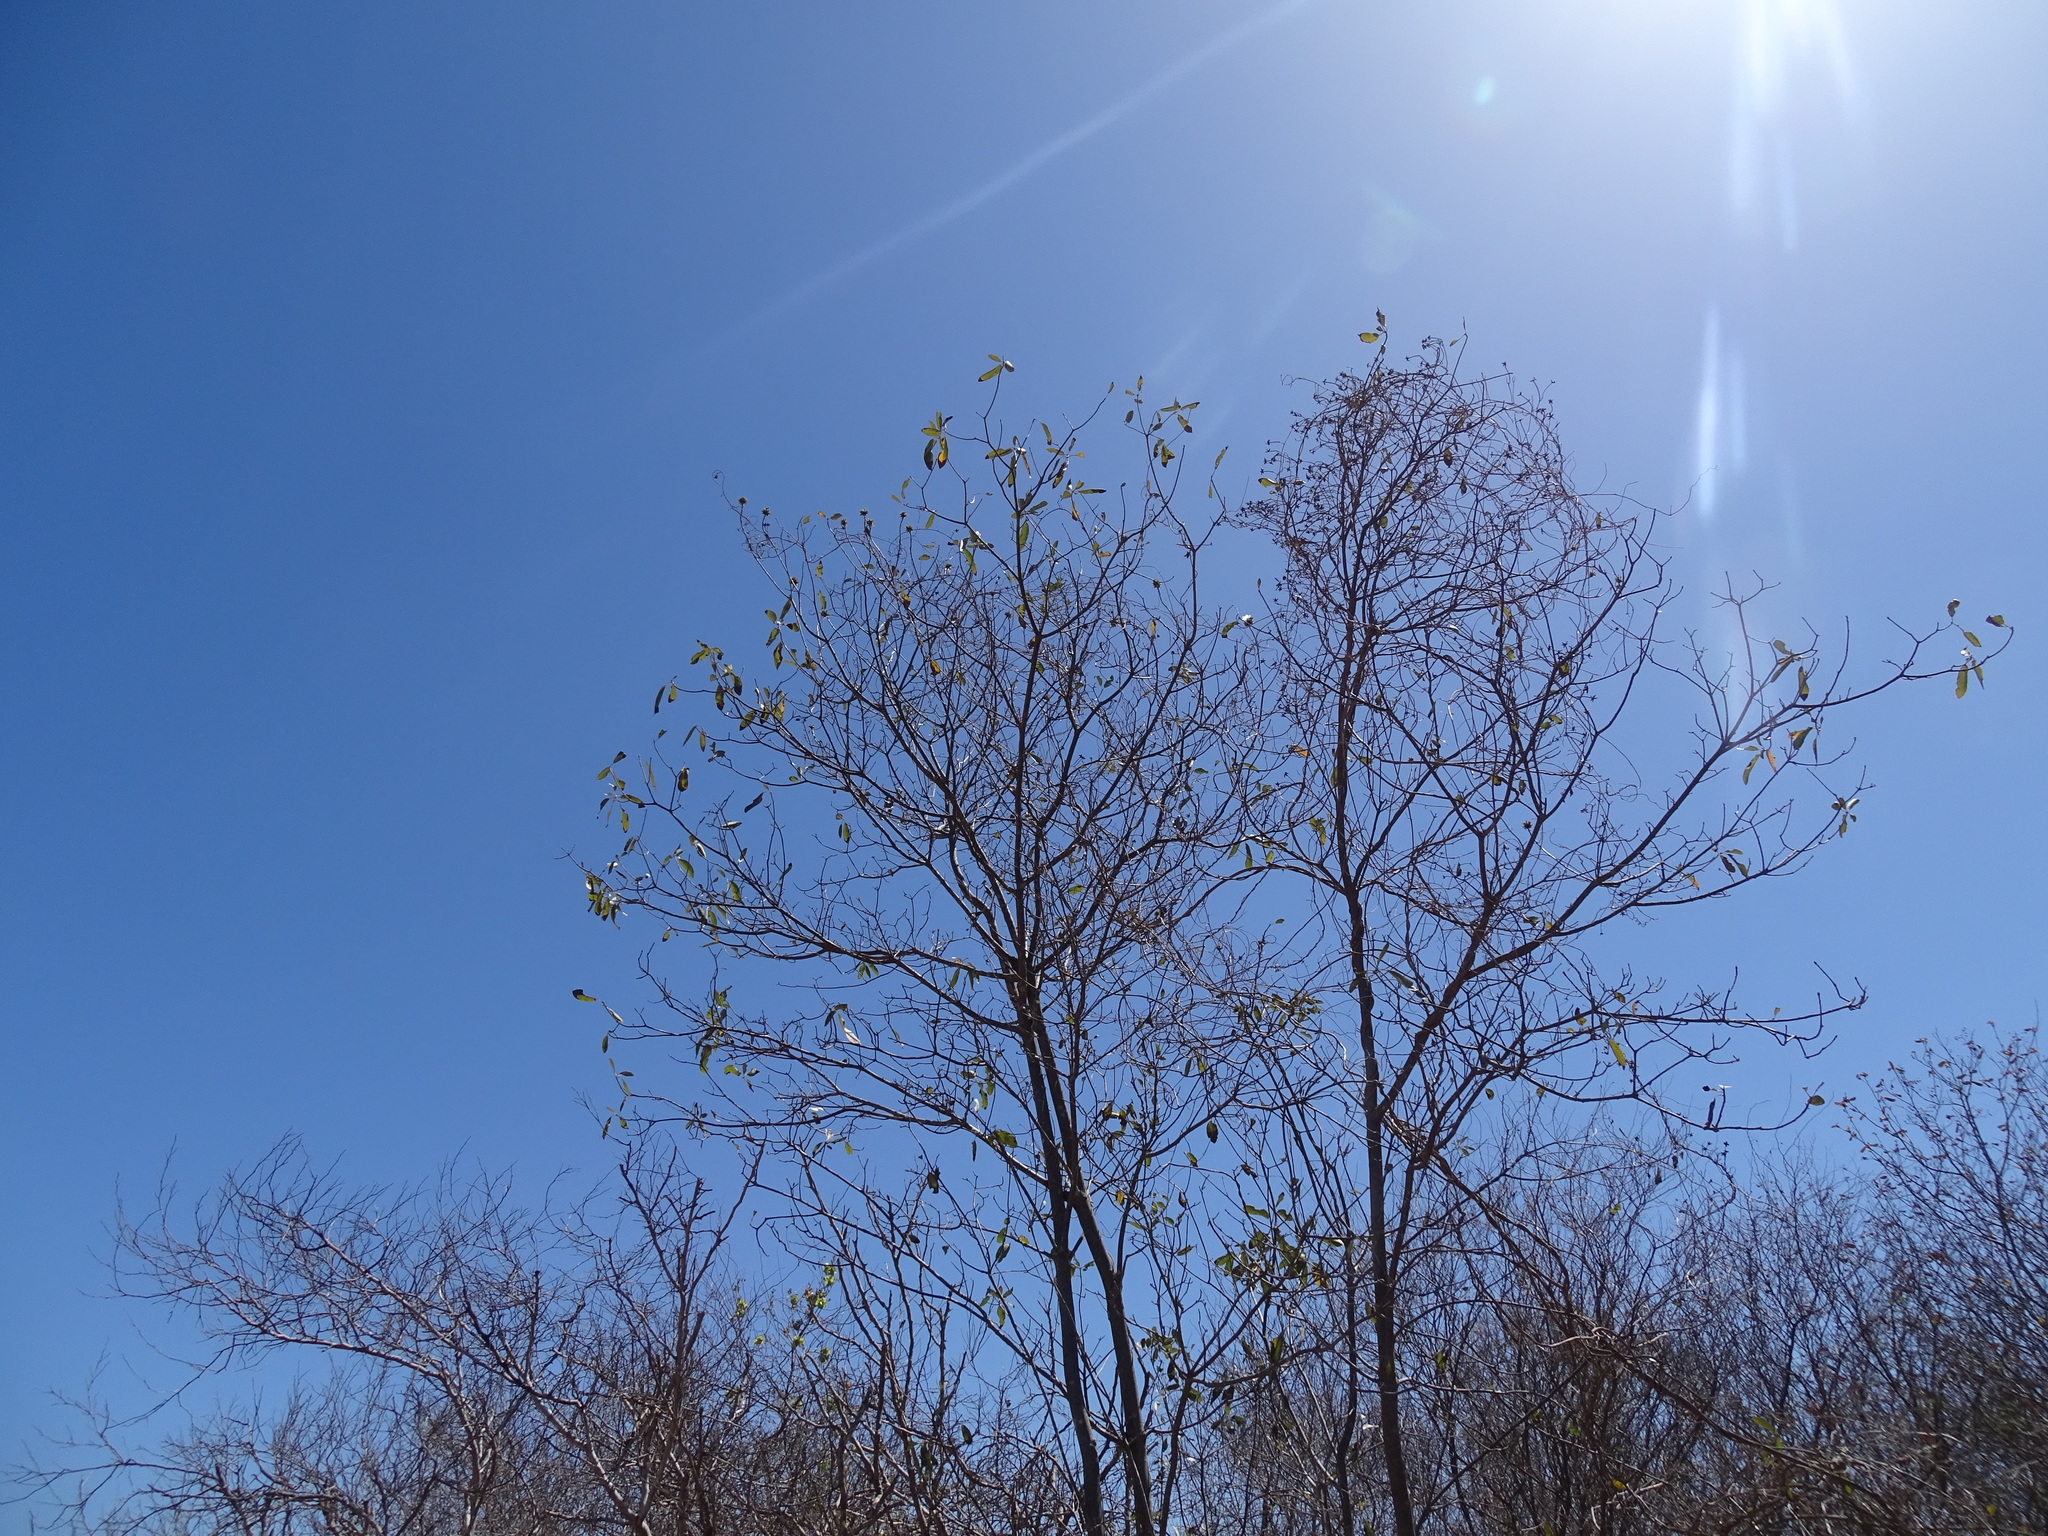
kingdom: Plantae
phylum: Tracheophyta
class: Magnoliopsida
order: Boraginales
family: Cordiaceae
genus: Cordia
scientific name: Cordia sonorae
